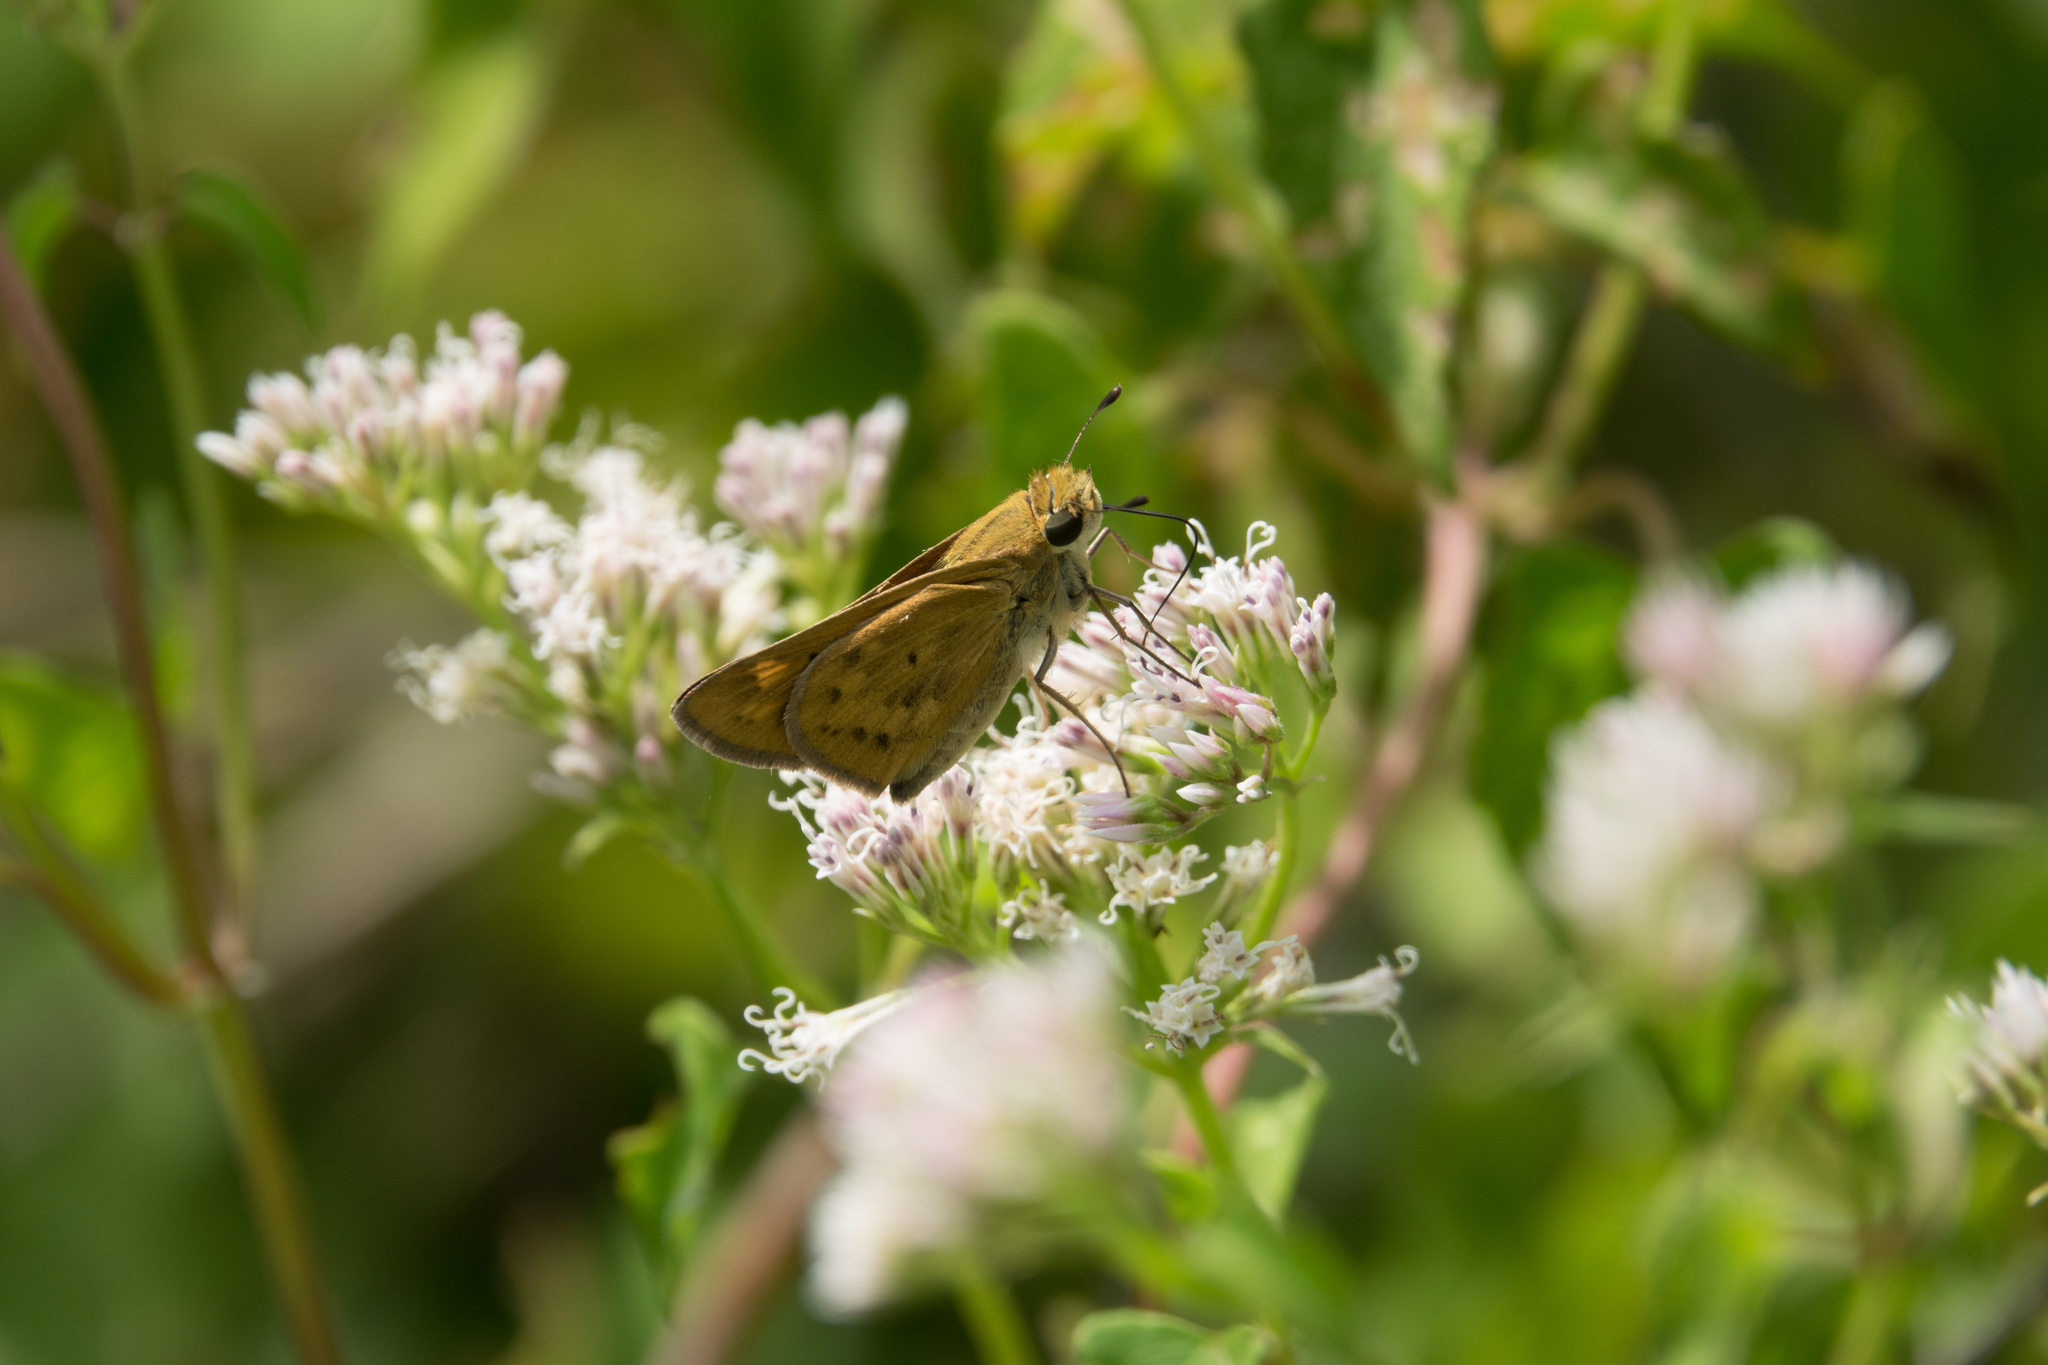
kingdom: Animalia
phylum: Arthropoda
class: Insecta
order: Lepidoptera
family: Hesperiidae
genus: Hylephila
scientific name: Hylephila phyleus
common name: Fiery skipper
